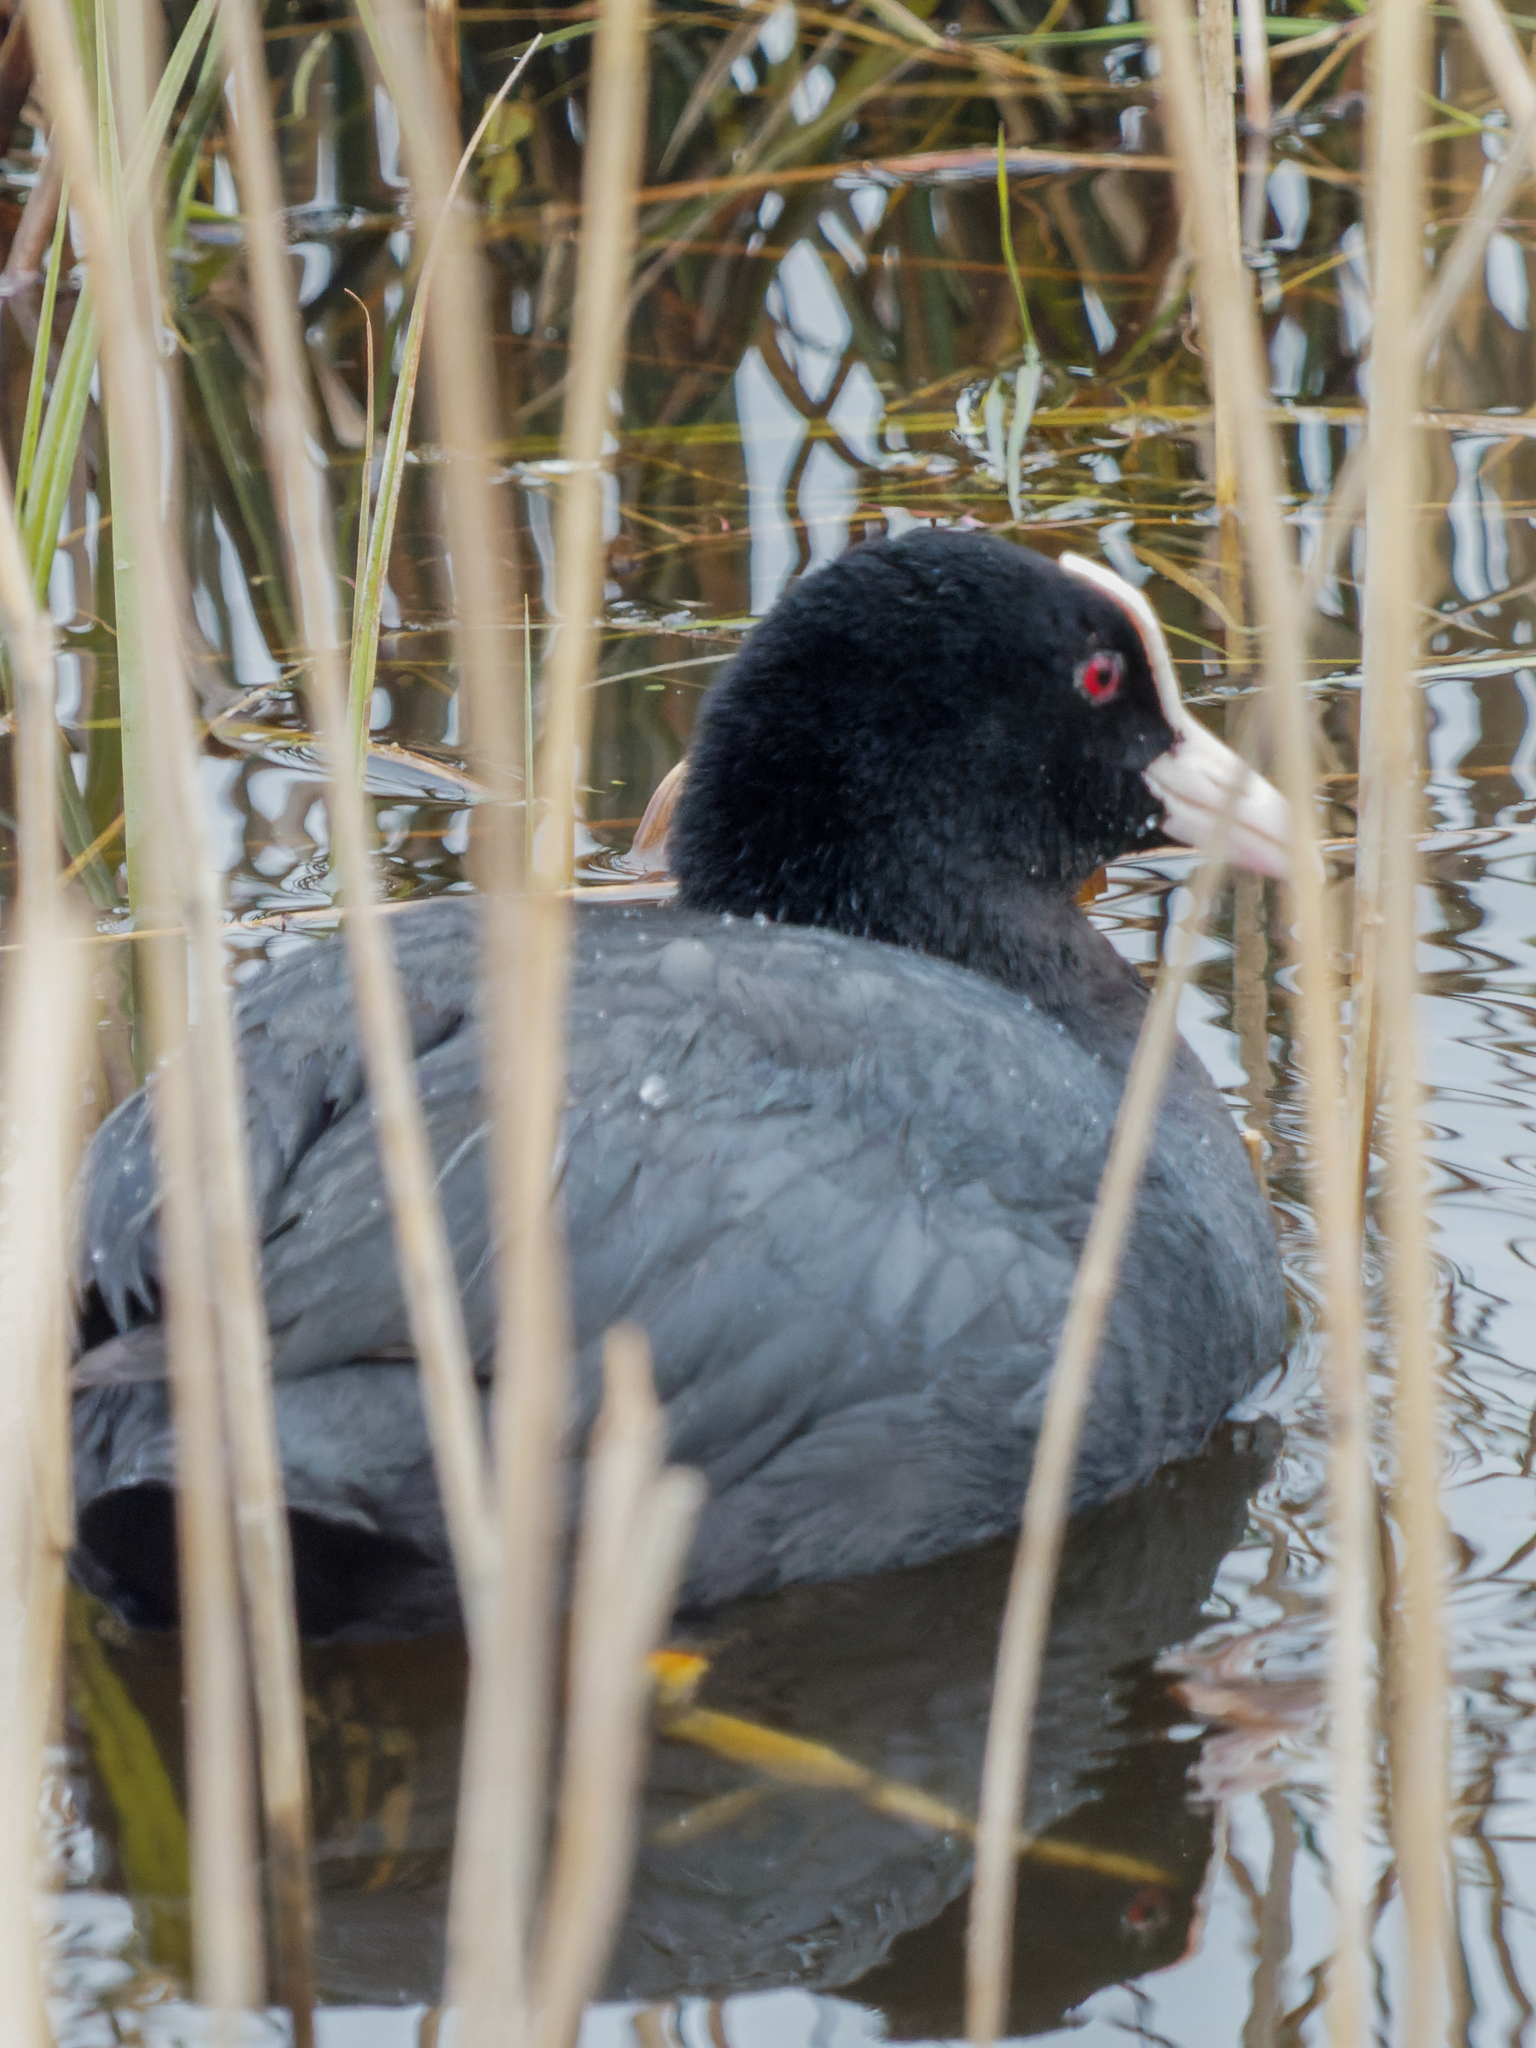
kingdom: Animalia
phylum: Chordata
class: Aves
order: Gruiformes
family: Rallidae
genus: Fulica
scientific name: Fulica atra
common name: Eurasian coot
